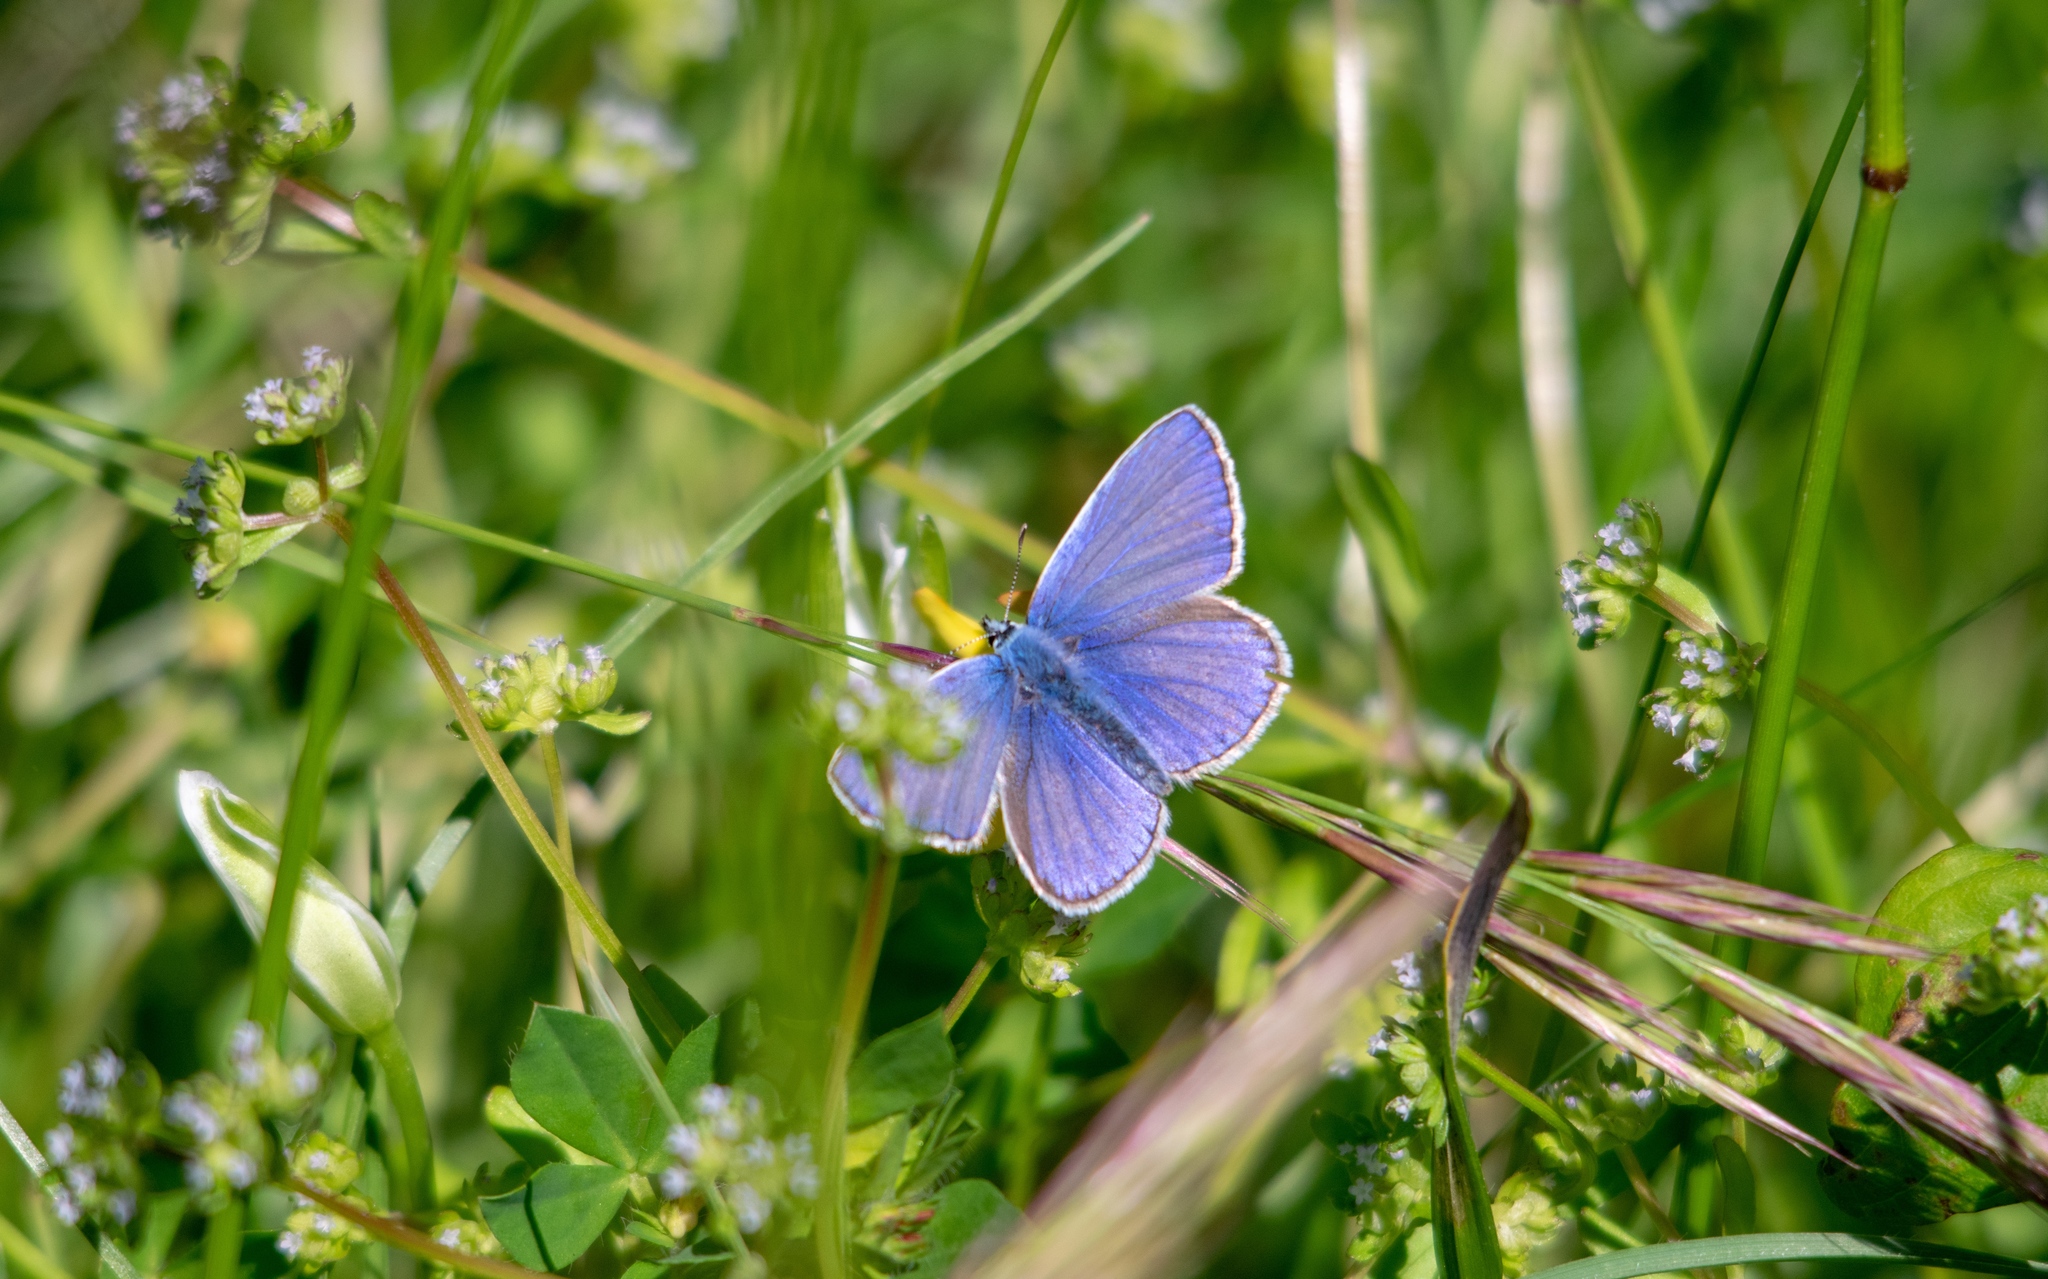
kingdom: Animalia
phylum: Arthropoda
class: Insecta
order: Lepidoptera
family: Lycaenidae
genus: Polyommatus
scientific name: Polyommatus icarus
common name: Common blue
